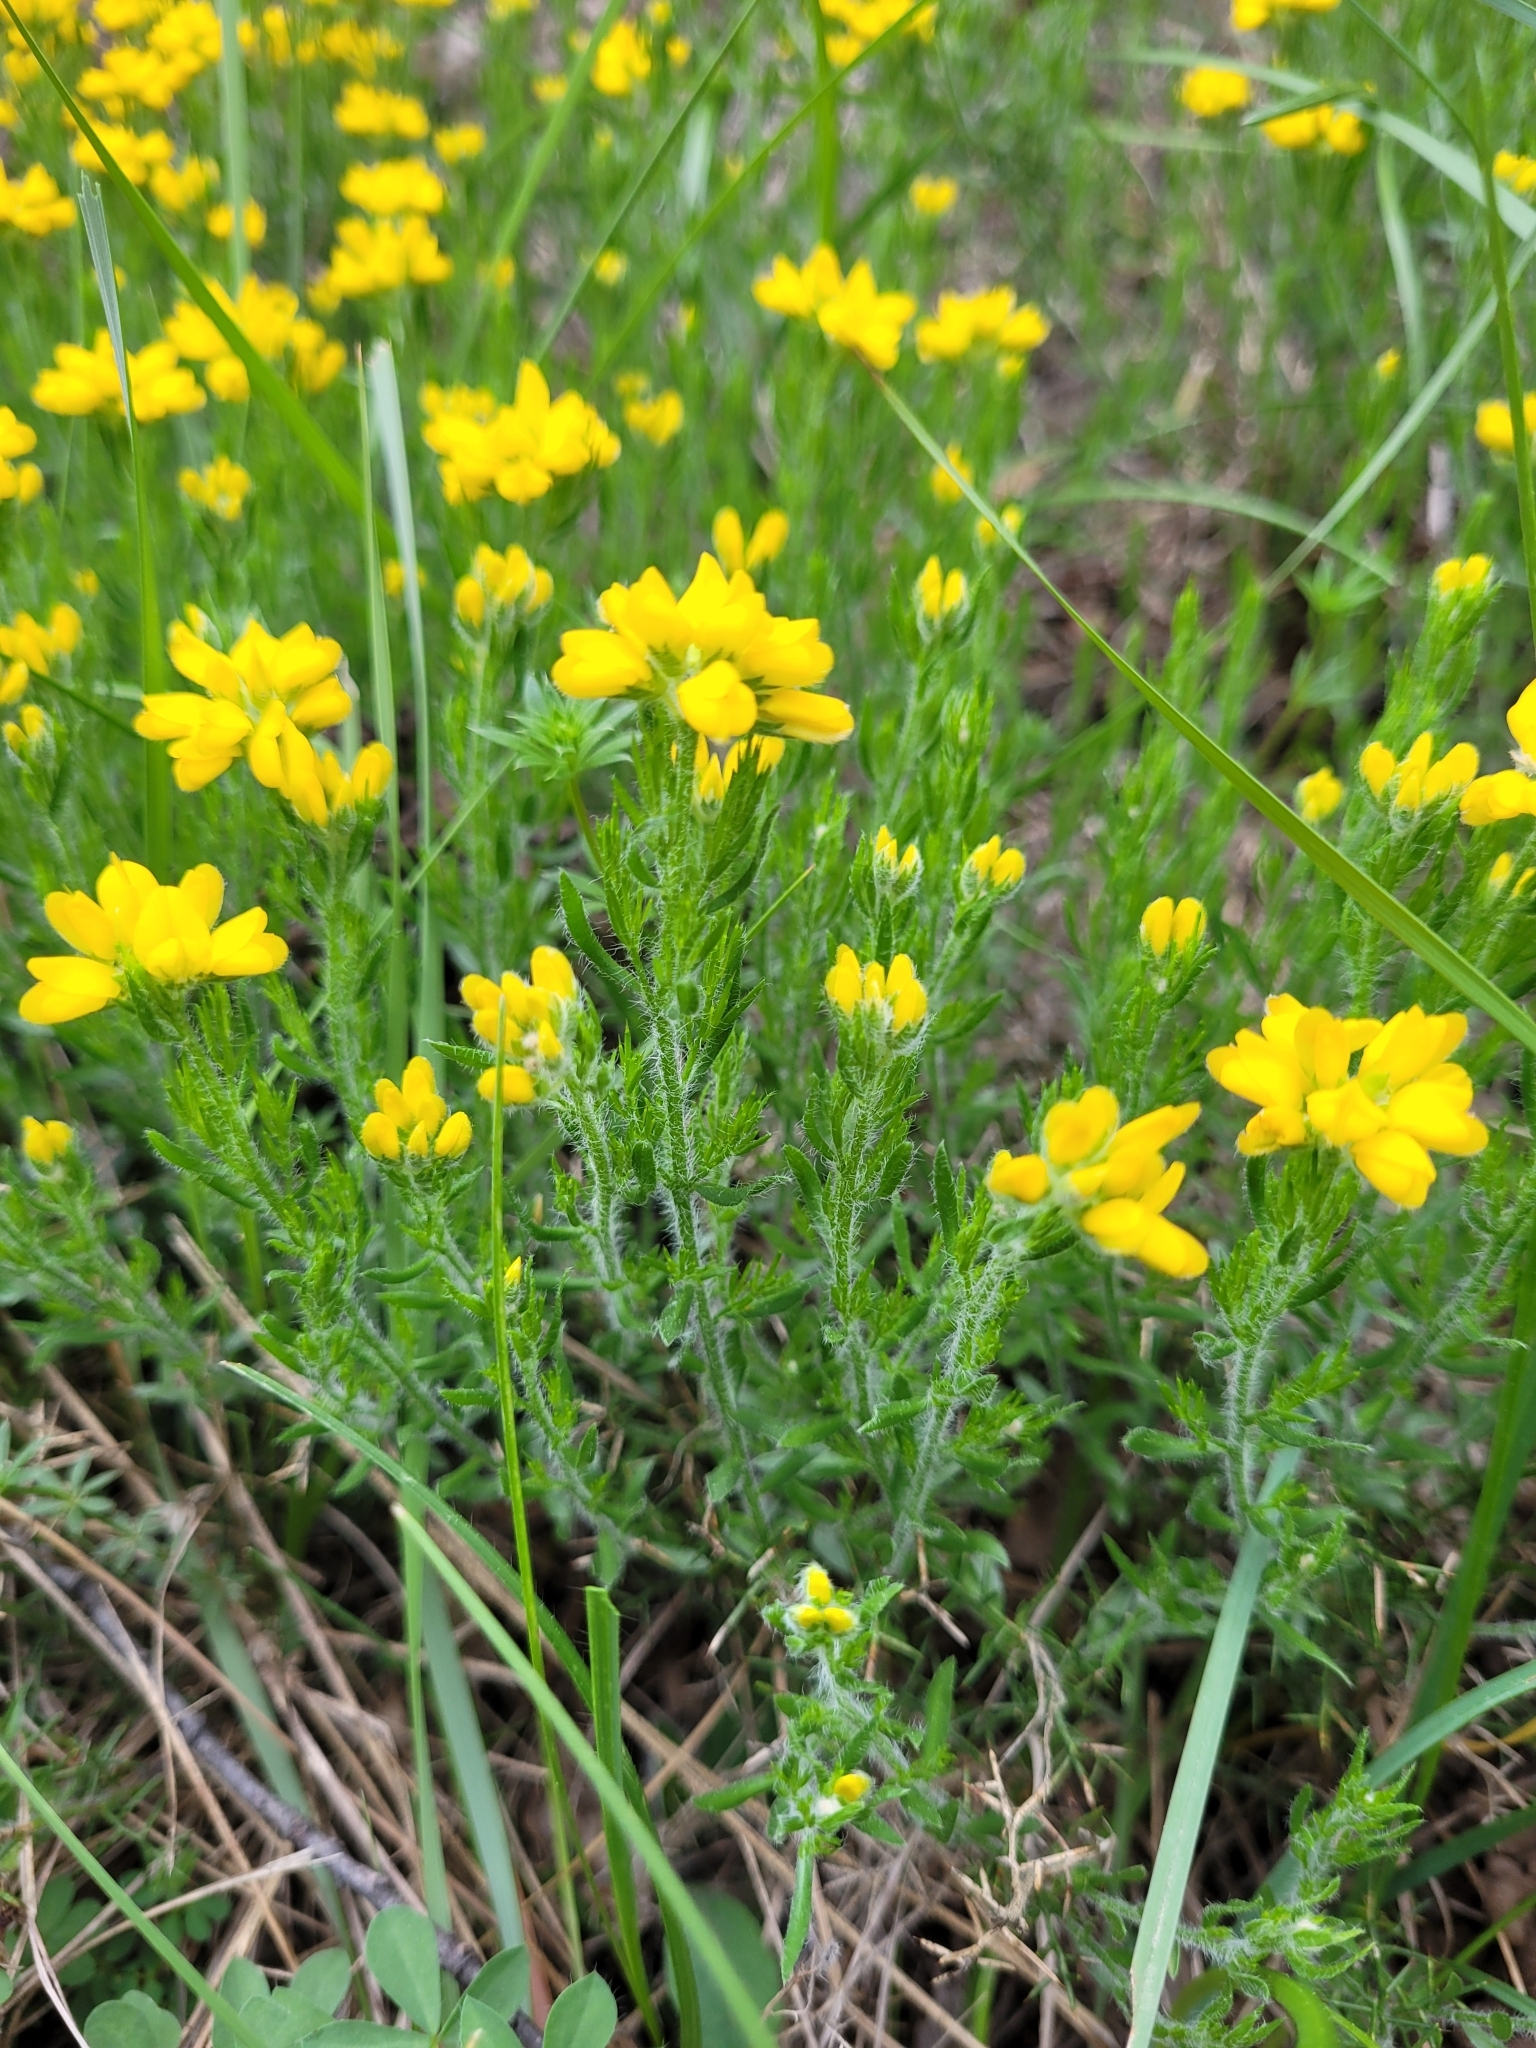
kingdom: Plantae
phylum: Tracheophyta
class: Magnoliopsida
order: Fabales
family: Fabaceae
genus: Genista
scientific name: Genista hispanica
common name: Spanish gorse
